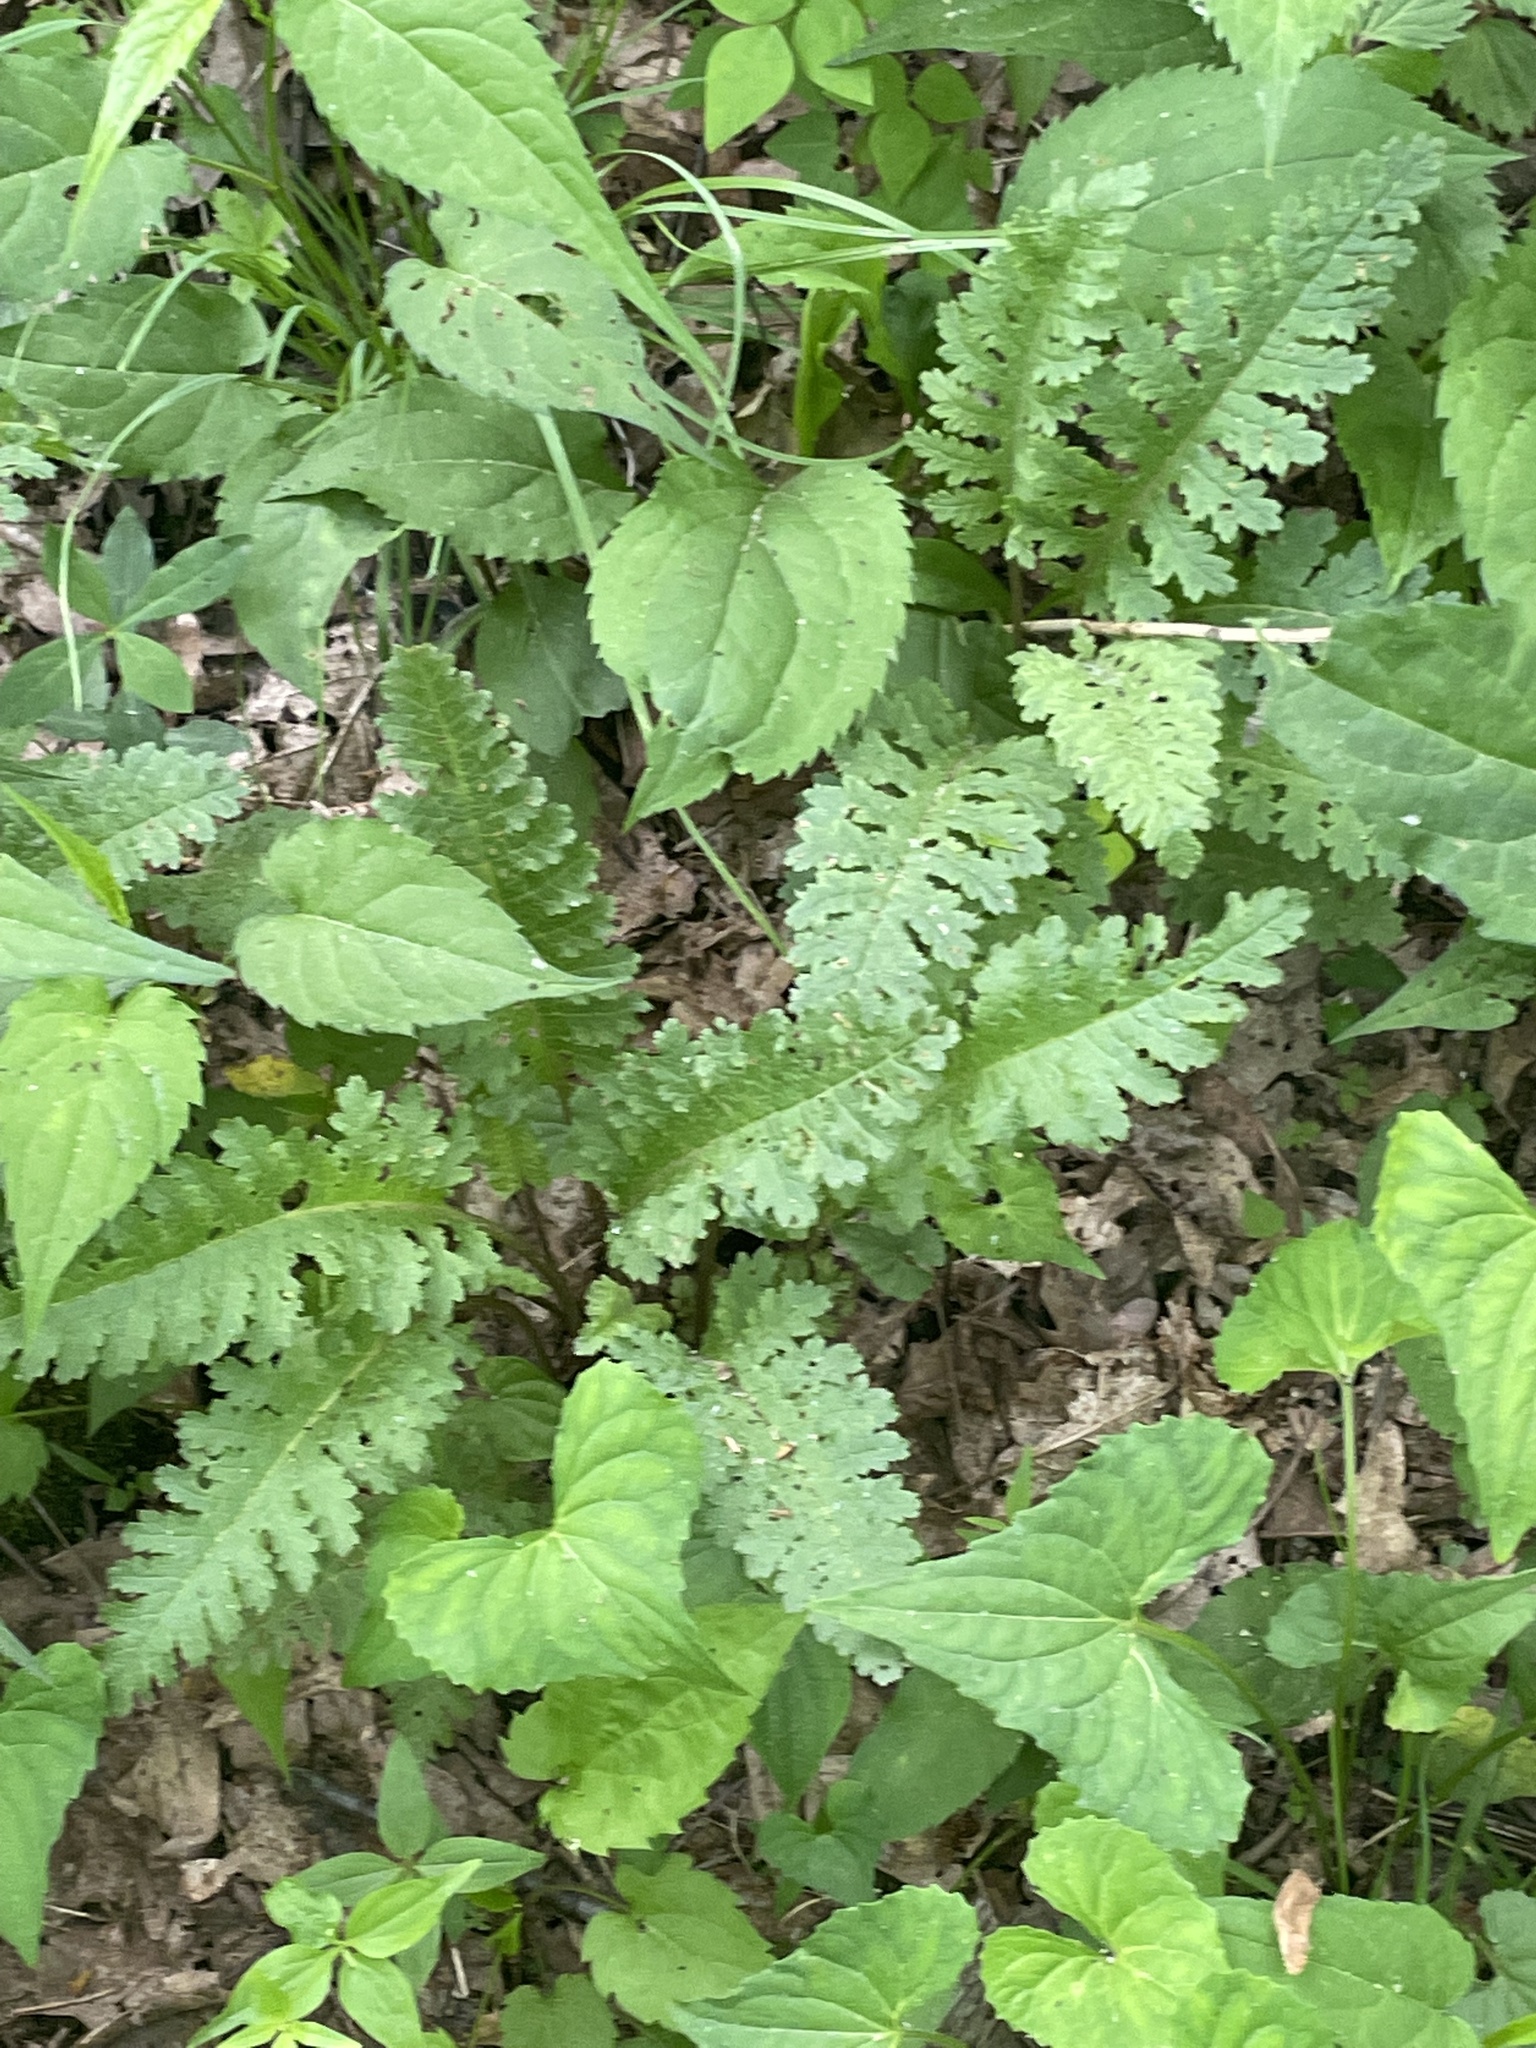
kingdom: Plantae
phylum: Tracheophyta
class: Magnoliopsida
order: Lamiales
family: Orobanchaceae
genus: Pedicularis
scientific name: Pedicularis canadensis
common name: Early lousewort
